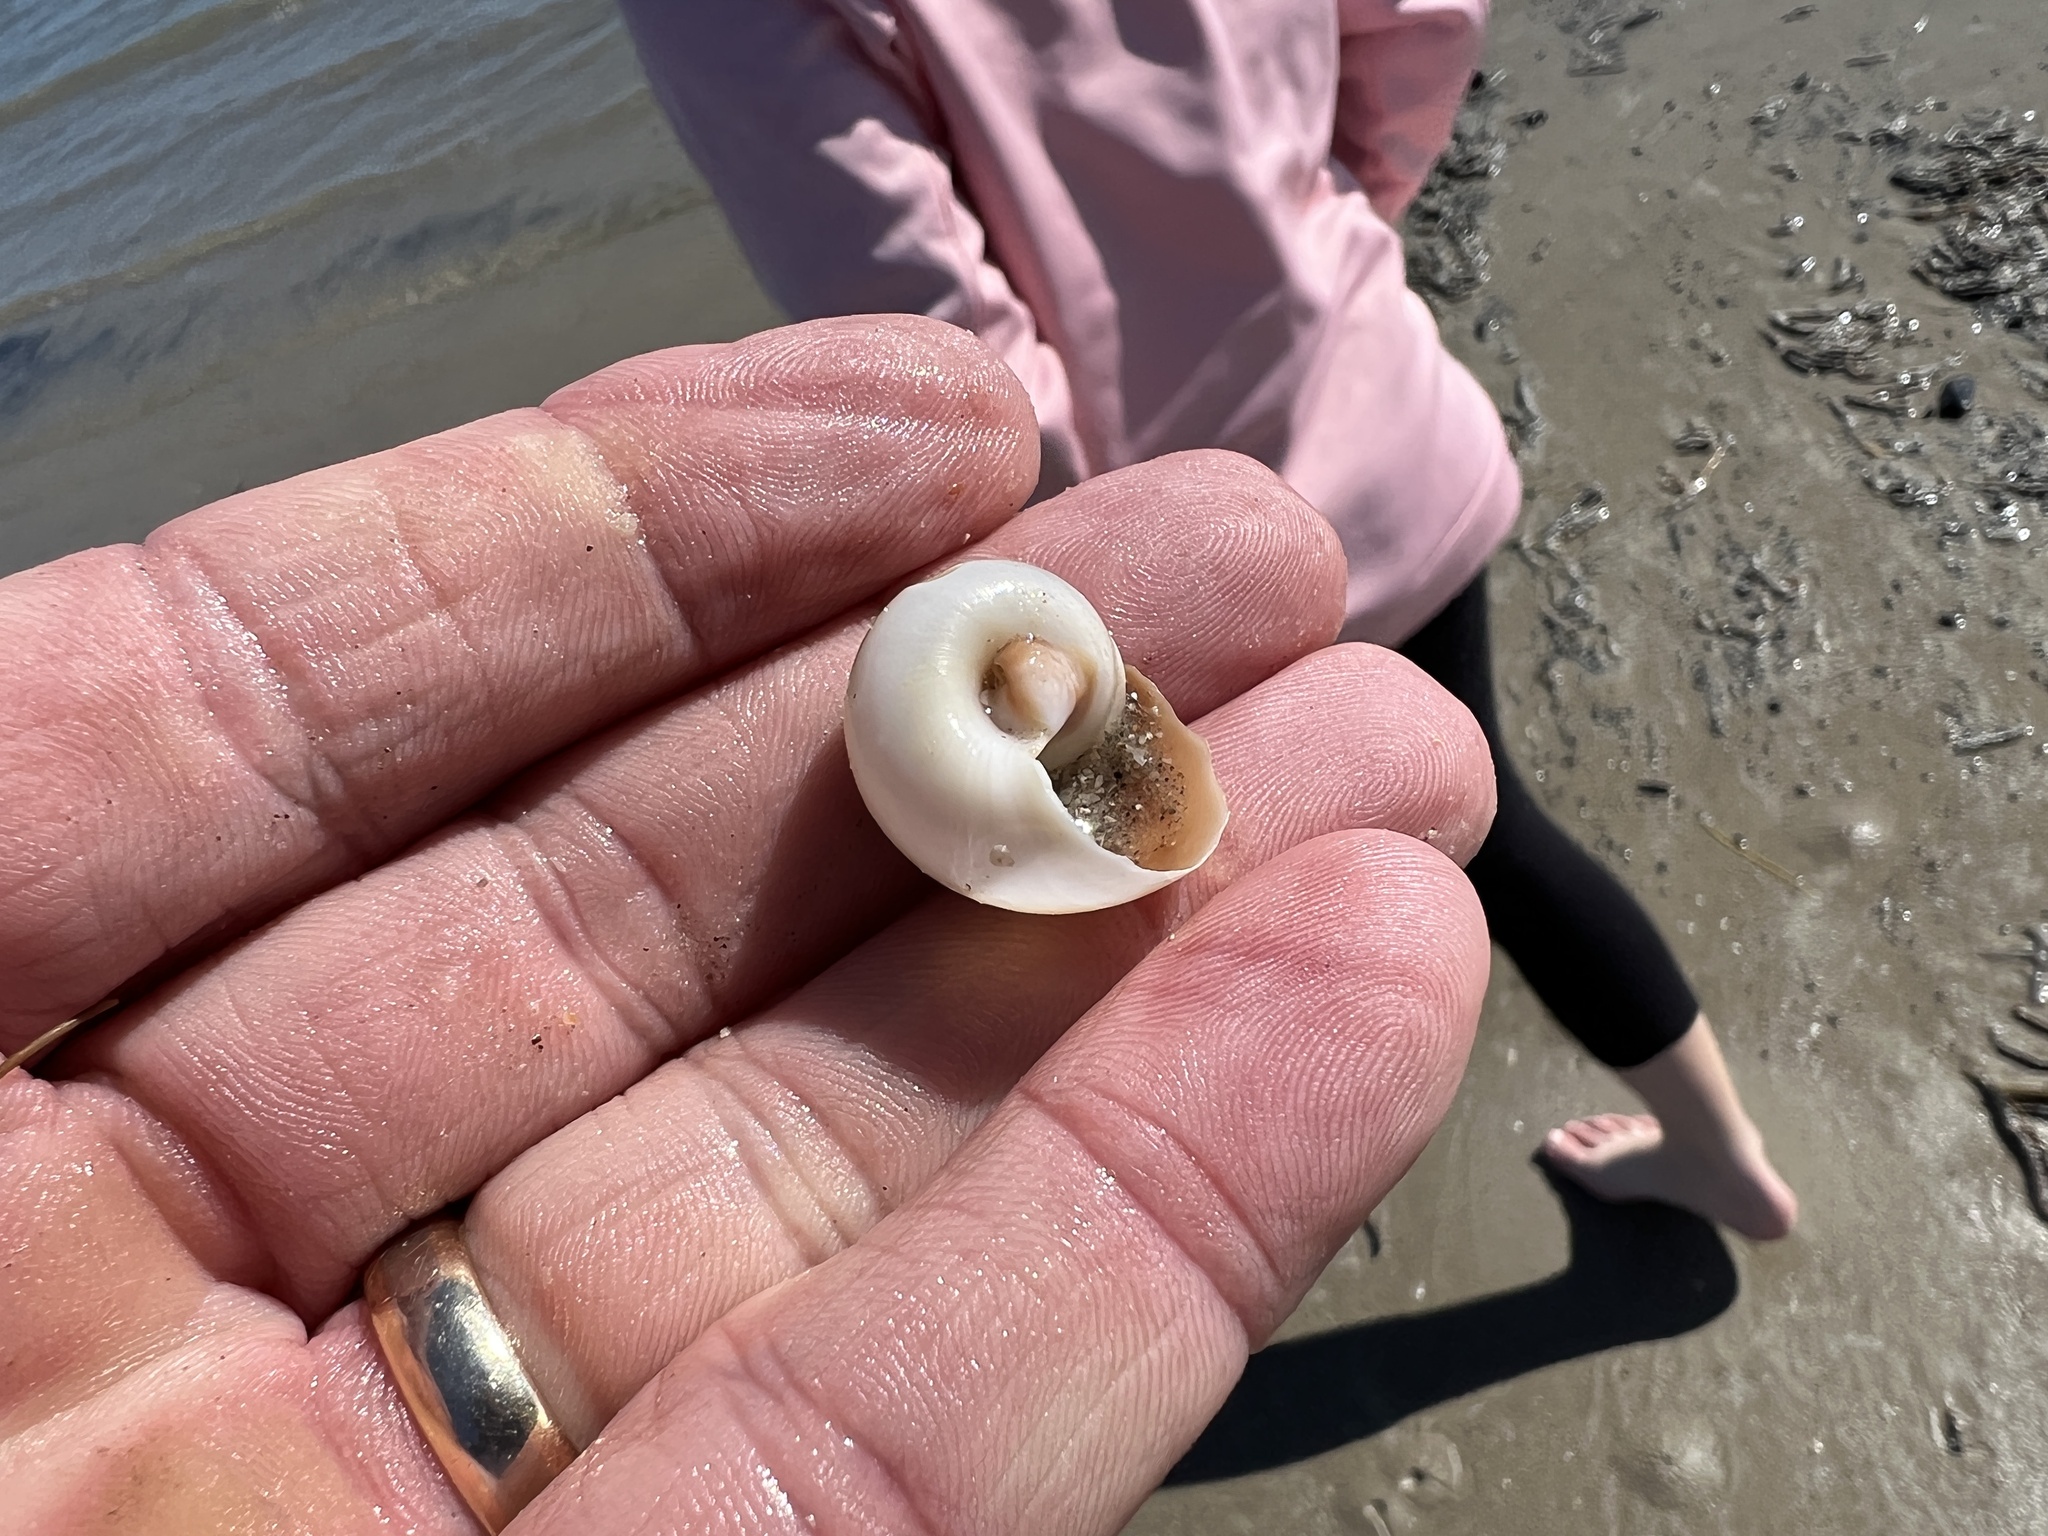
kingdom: Animalia
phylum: Mollusca
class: Gastropoda
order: Littorinimorpha
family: Naticidae
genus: Neverita
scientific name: Neverita duplicata
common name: Lobed moonsnail
